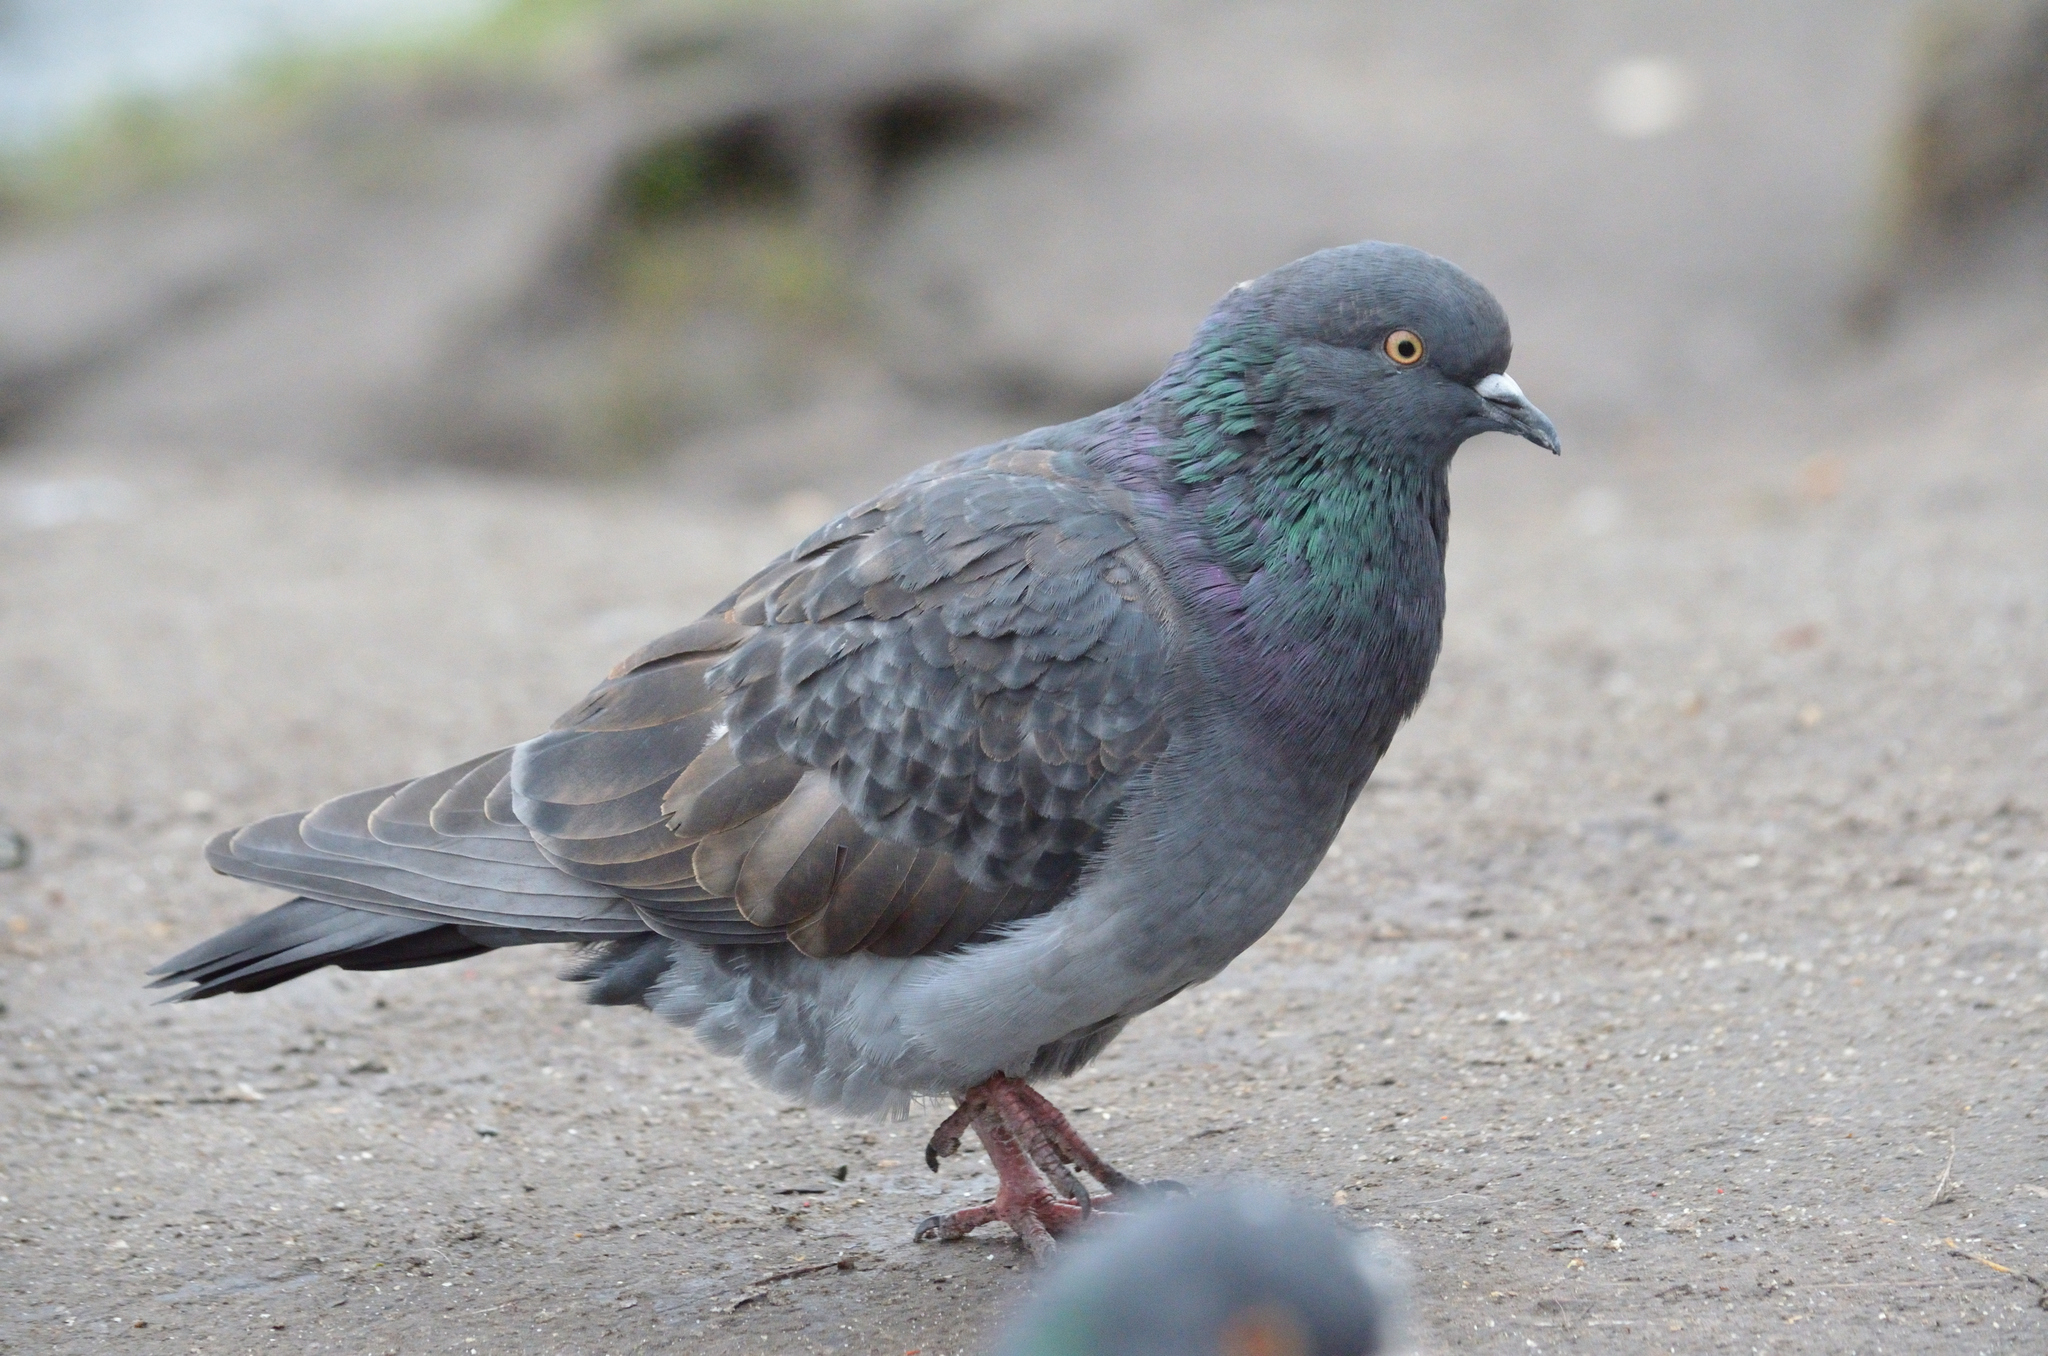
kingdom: Animalia
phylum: Chordata
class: Aves
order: Columbiformes
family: Columbidae
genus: Columba
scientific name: Columba livia
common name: Rock pigeon
